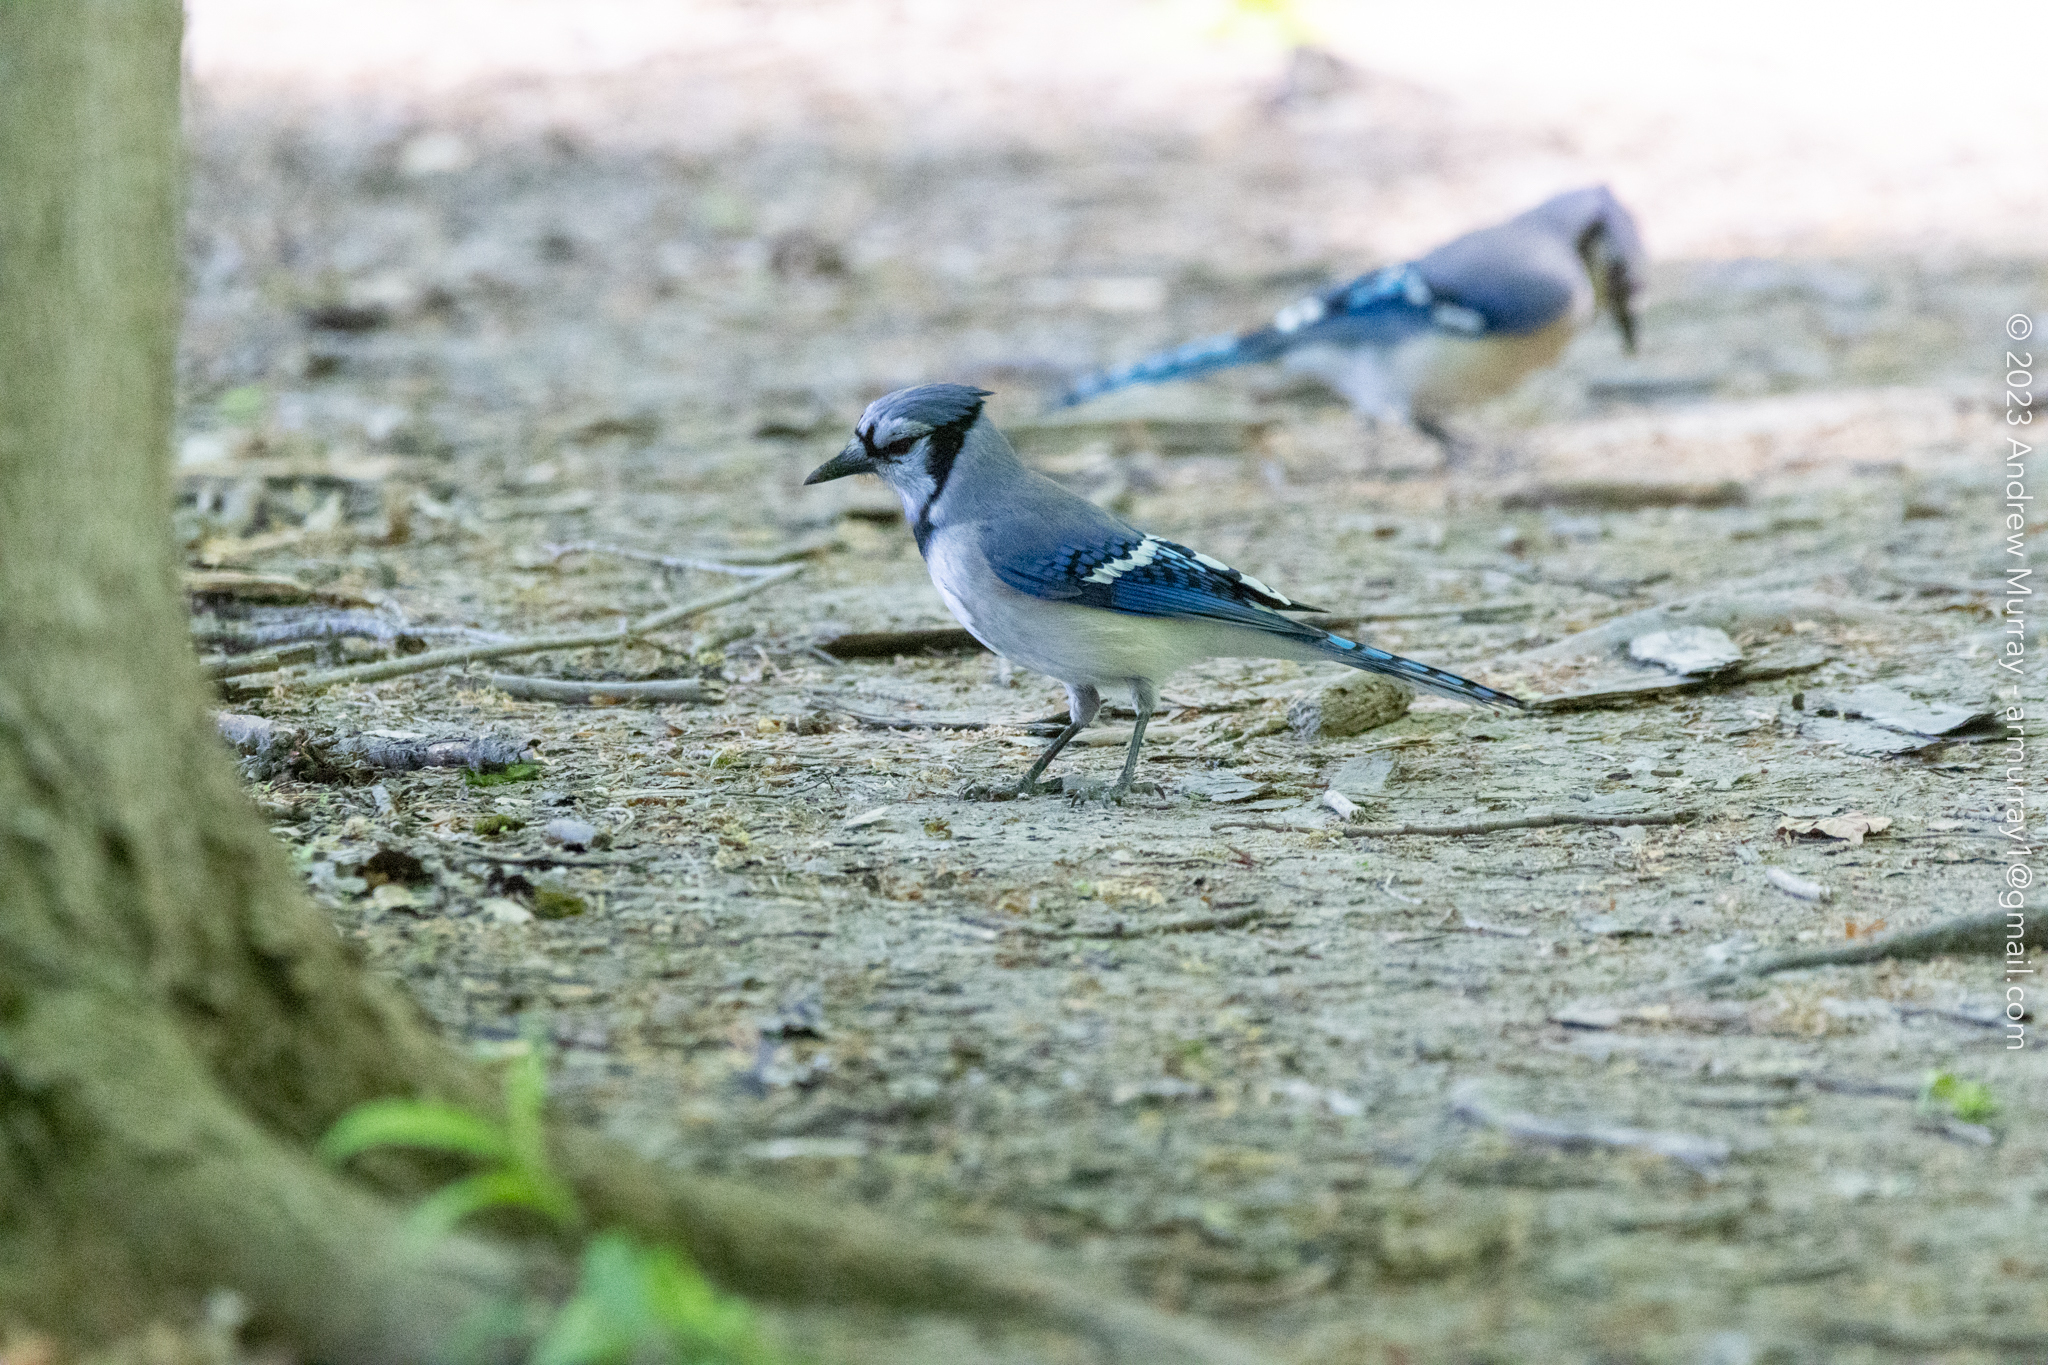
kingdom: Animalia
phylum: Chordata
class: Aves
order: Passeriformes
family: Corvidae
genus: Cyanocitta
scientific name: Cyanocitta cristata
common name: Blue jay
